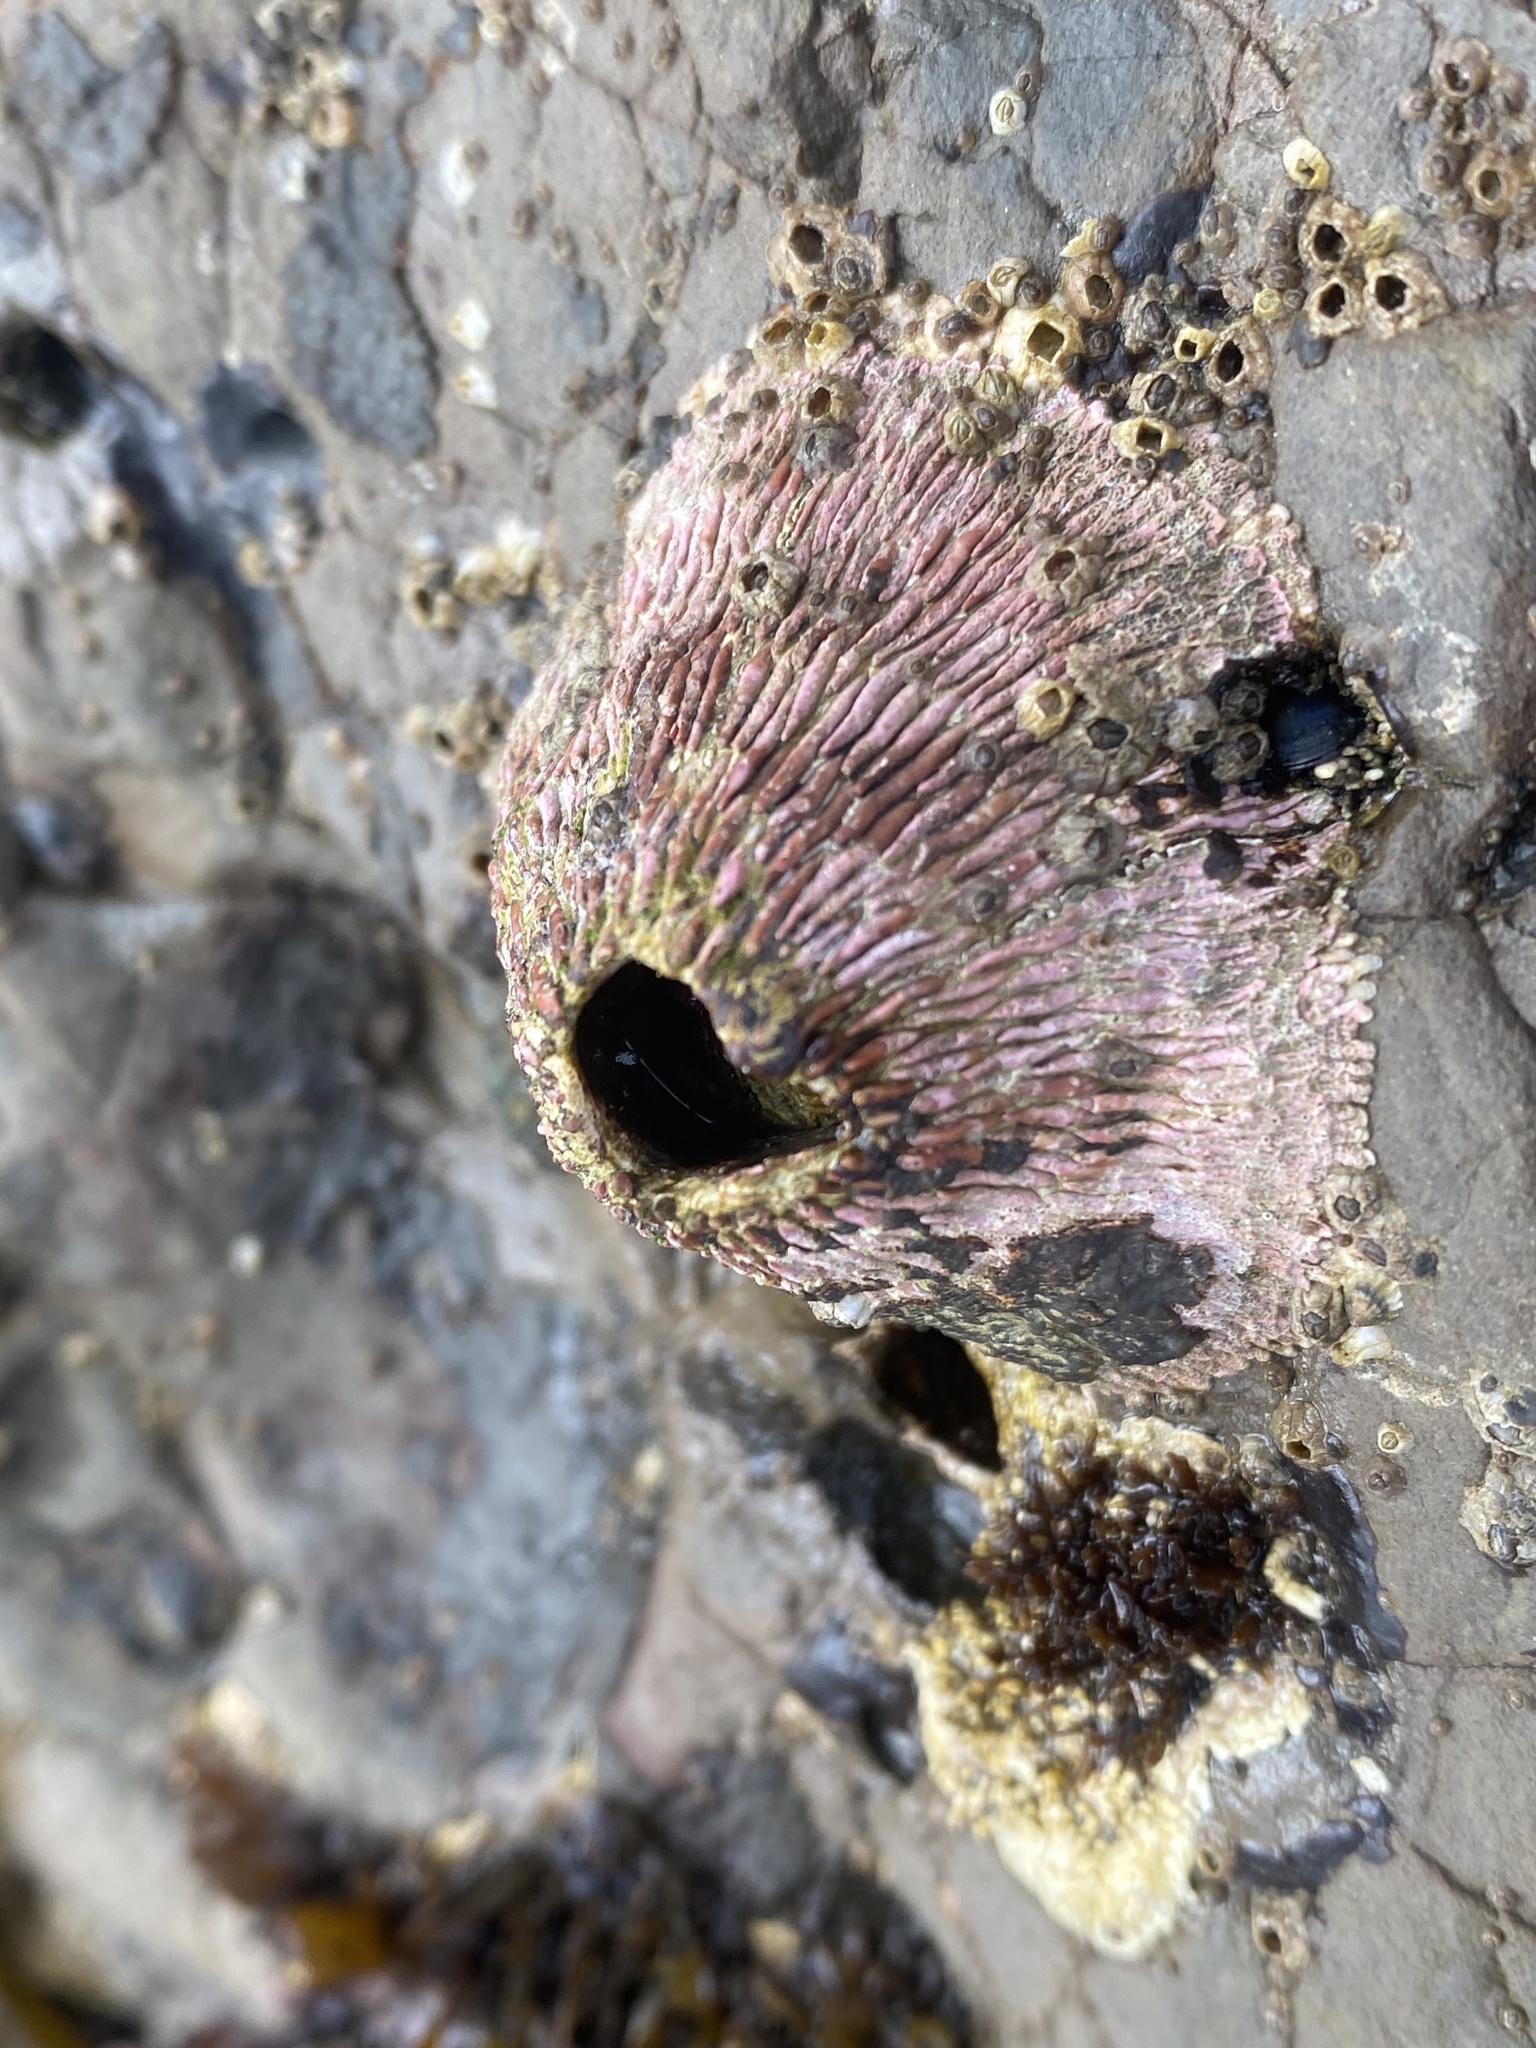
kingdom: Animalia
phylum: Arthropoda
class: Maxillopoda
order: Sessilia
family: Tetraclitidae
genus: Tetraclita
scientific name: Tetraclita rubescens
